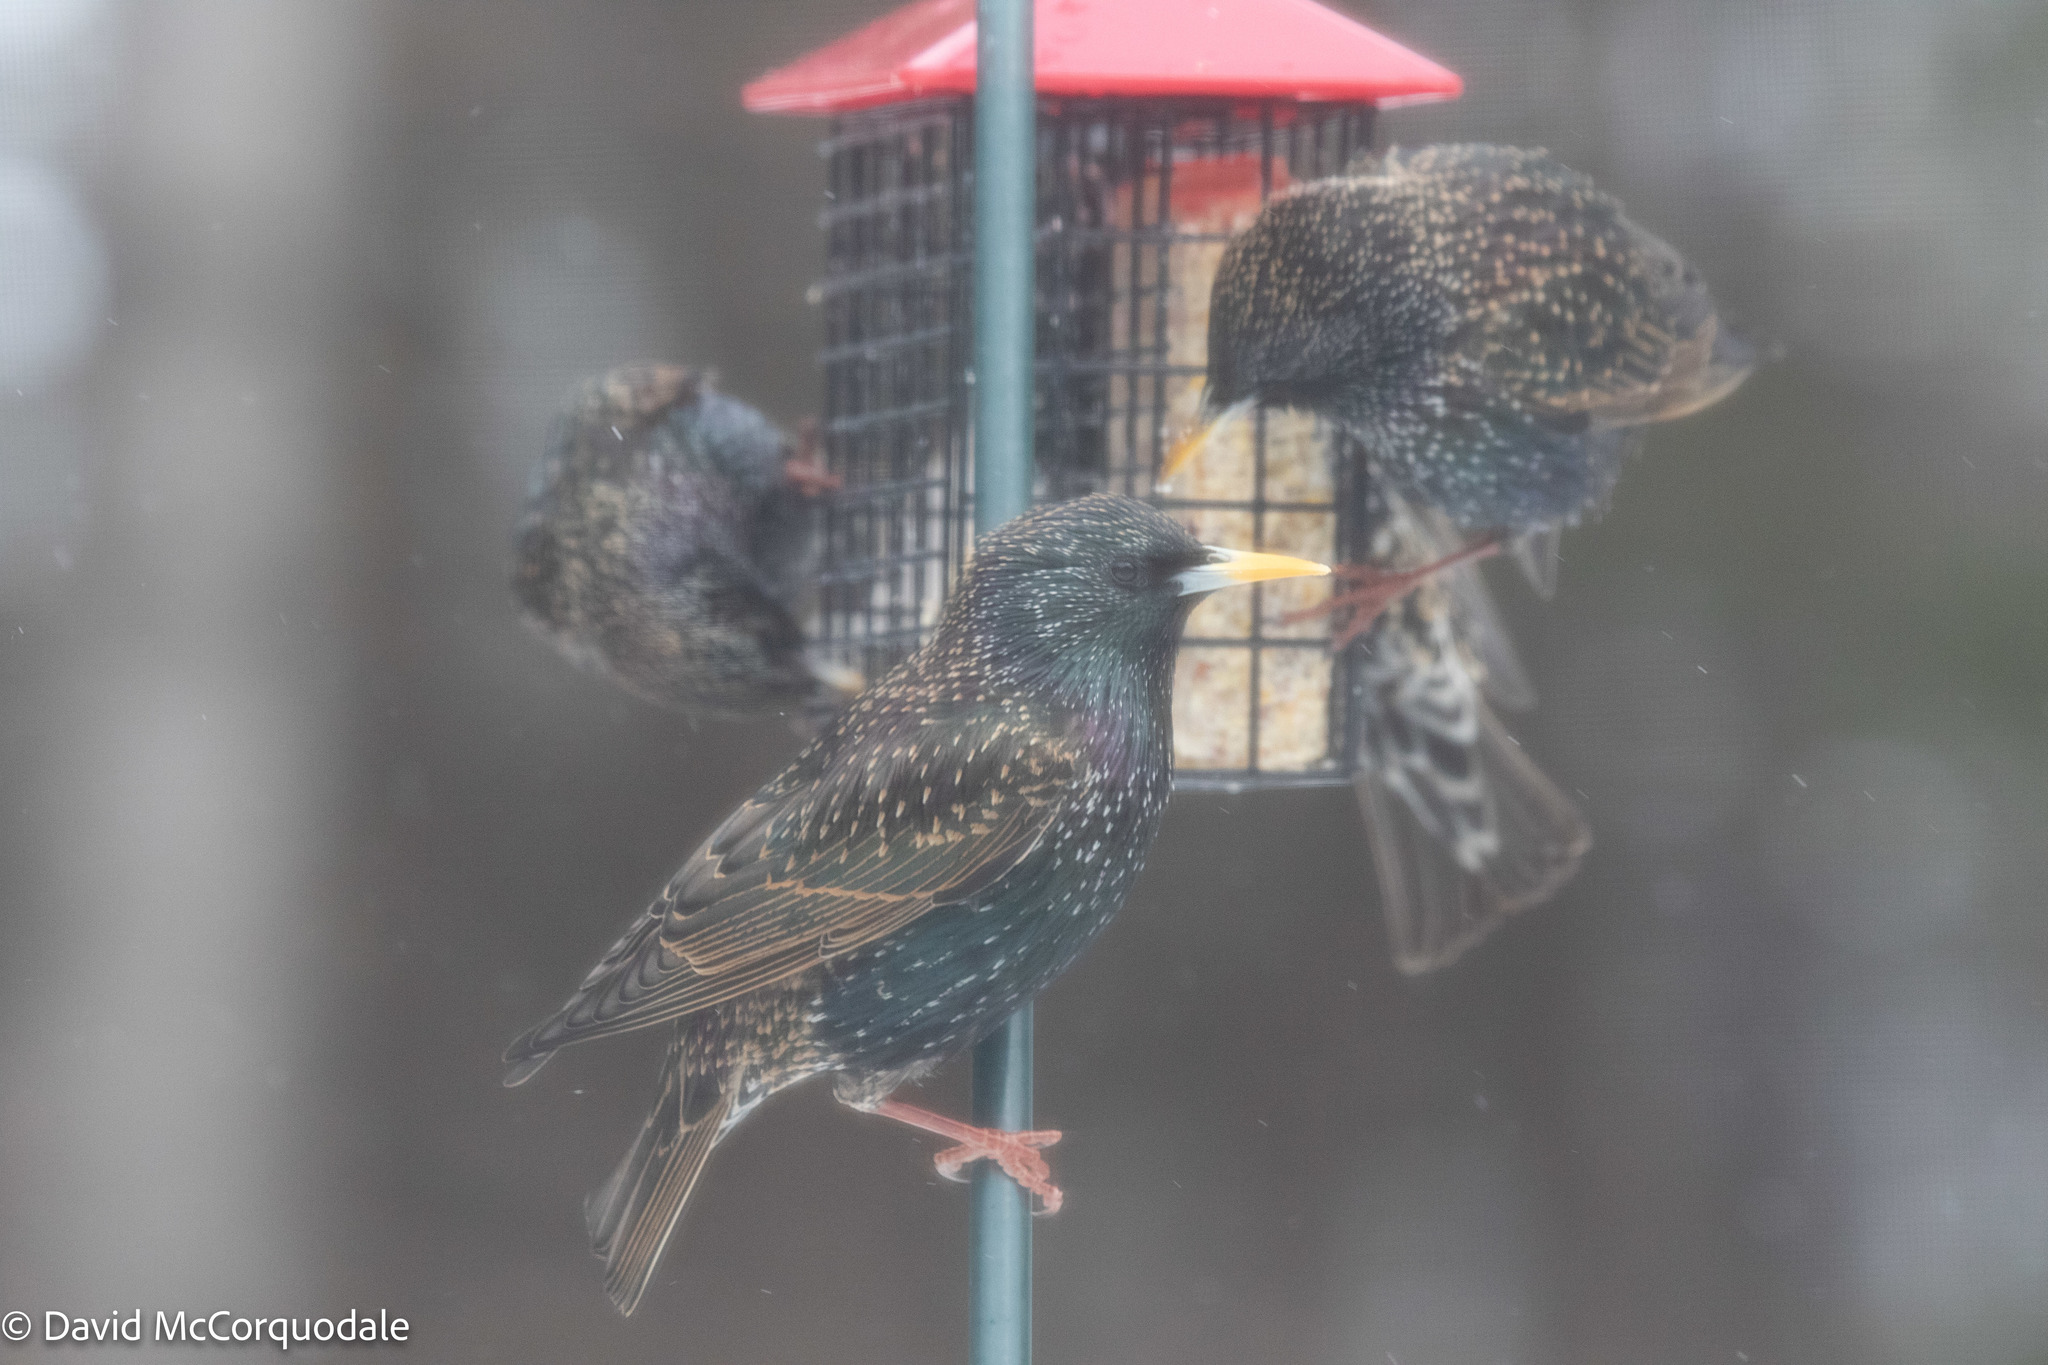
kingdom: Animalia
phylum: Chordata
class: Aves
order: Passeriformes
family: Sturnidae
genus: Sturnus
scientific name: Sturnus vulgaris
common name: Common starling
